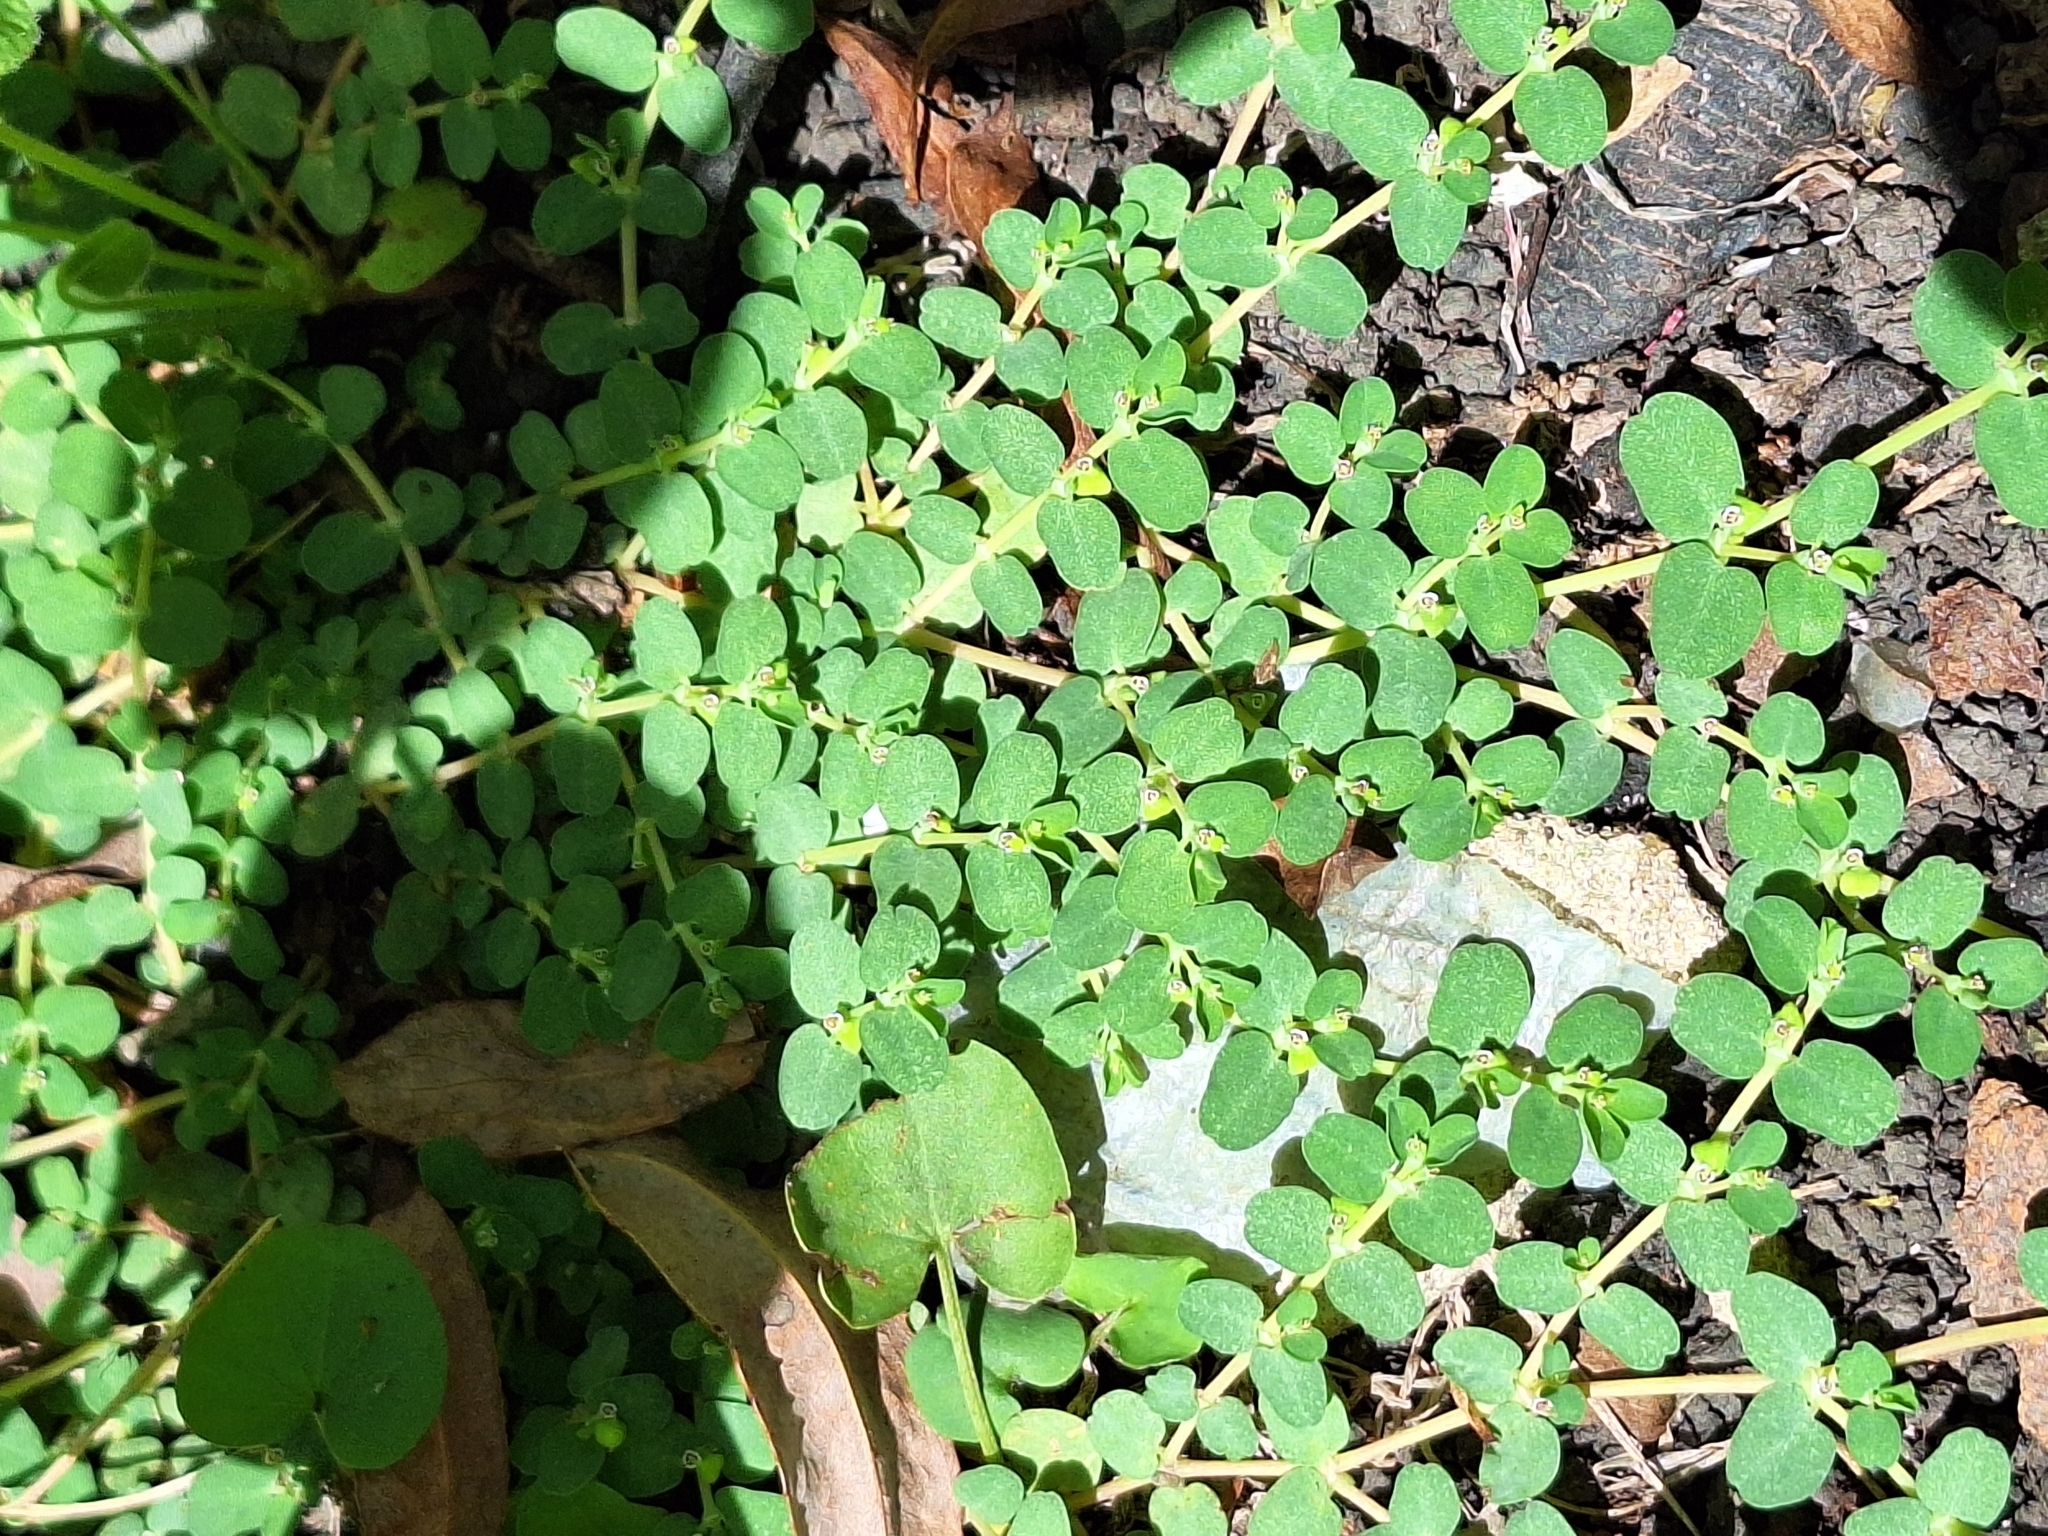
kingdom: Plantae
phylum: Tracheophyta
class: Magnoliopsida
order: Malpighiales
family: Euphorbiaceae
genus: Euphorbia
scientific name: Euphorbia serpens
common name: Matted sandmat
